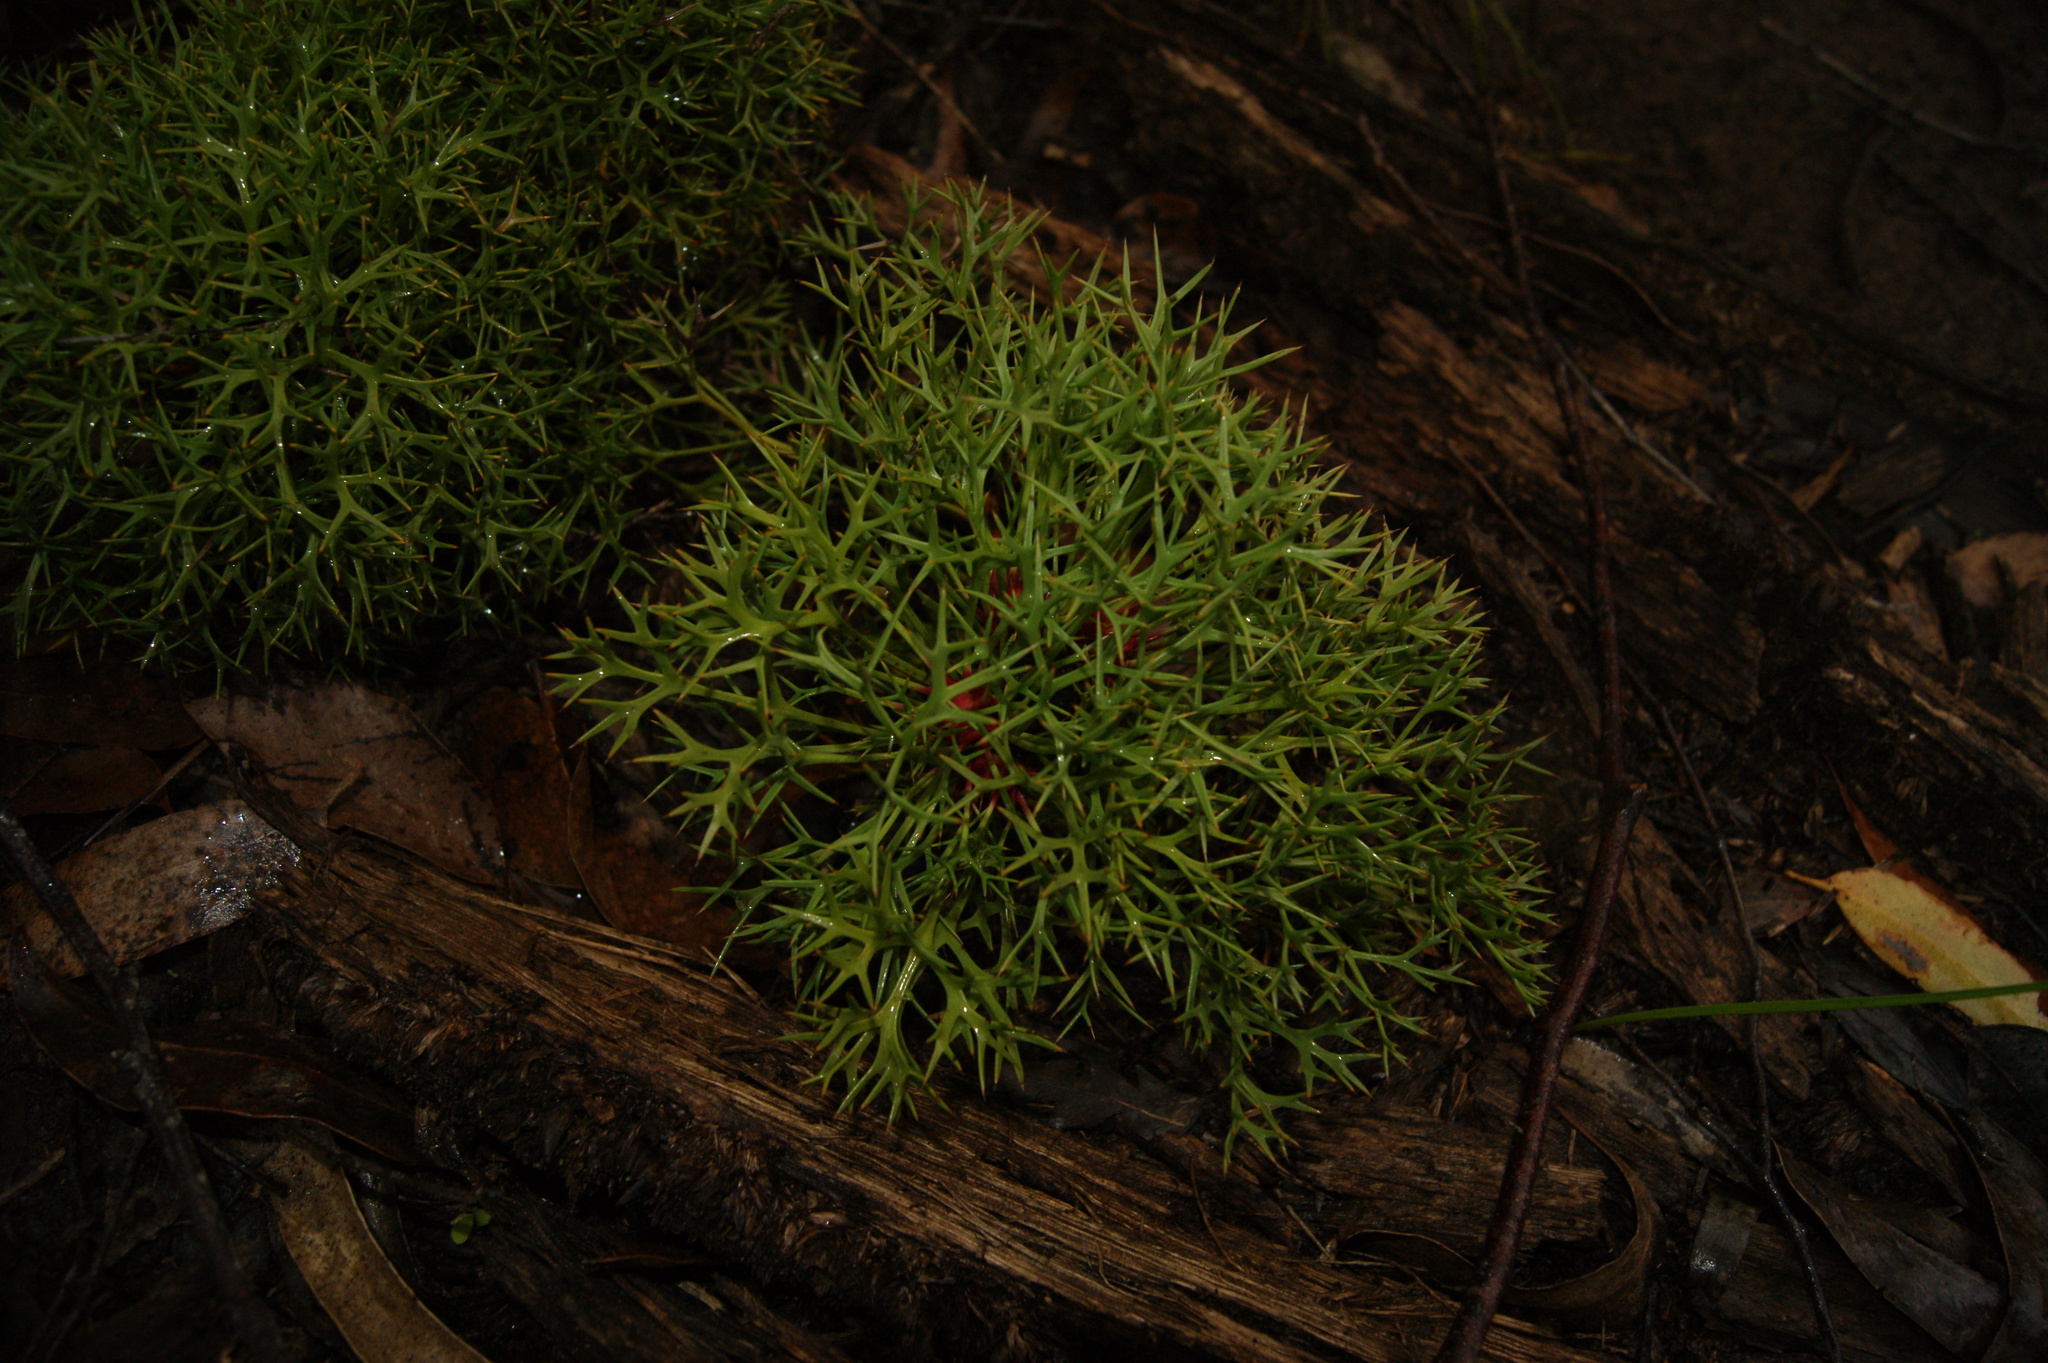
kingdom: Plantae
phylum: Tracheophyta
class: Magnoliopsida
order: Proteales
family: Proteaceae
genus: Isopogon
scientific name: Isopogon ceratophyllus
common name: Horny cone-bush
